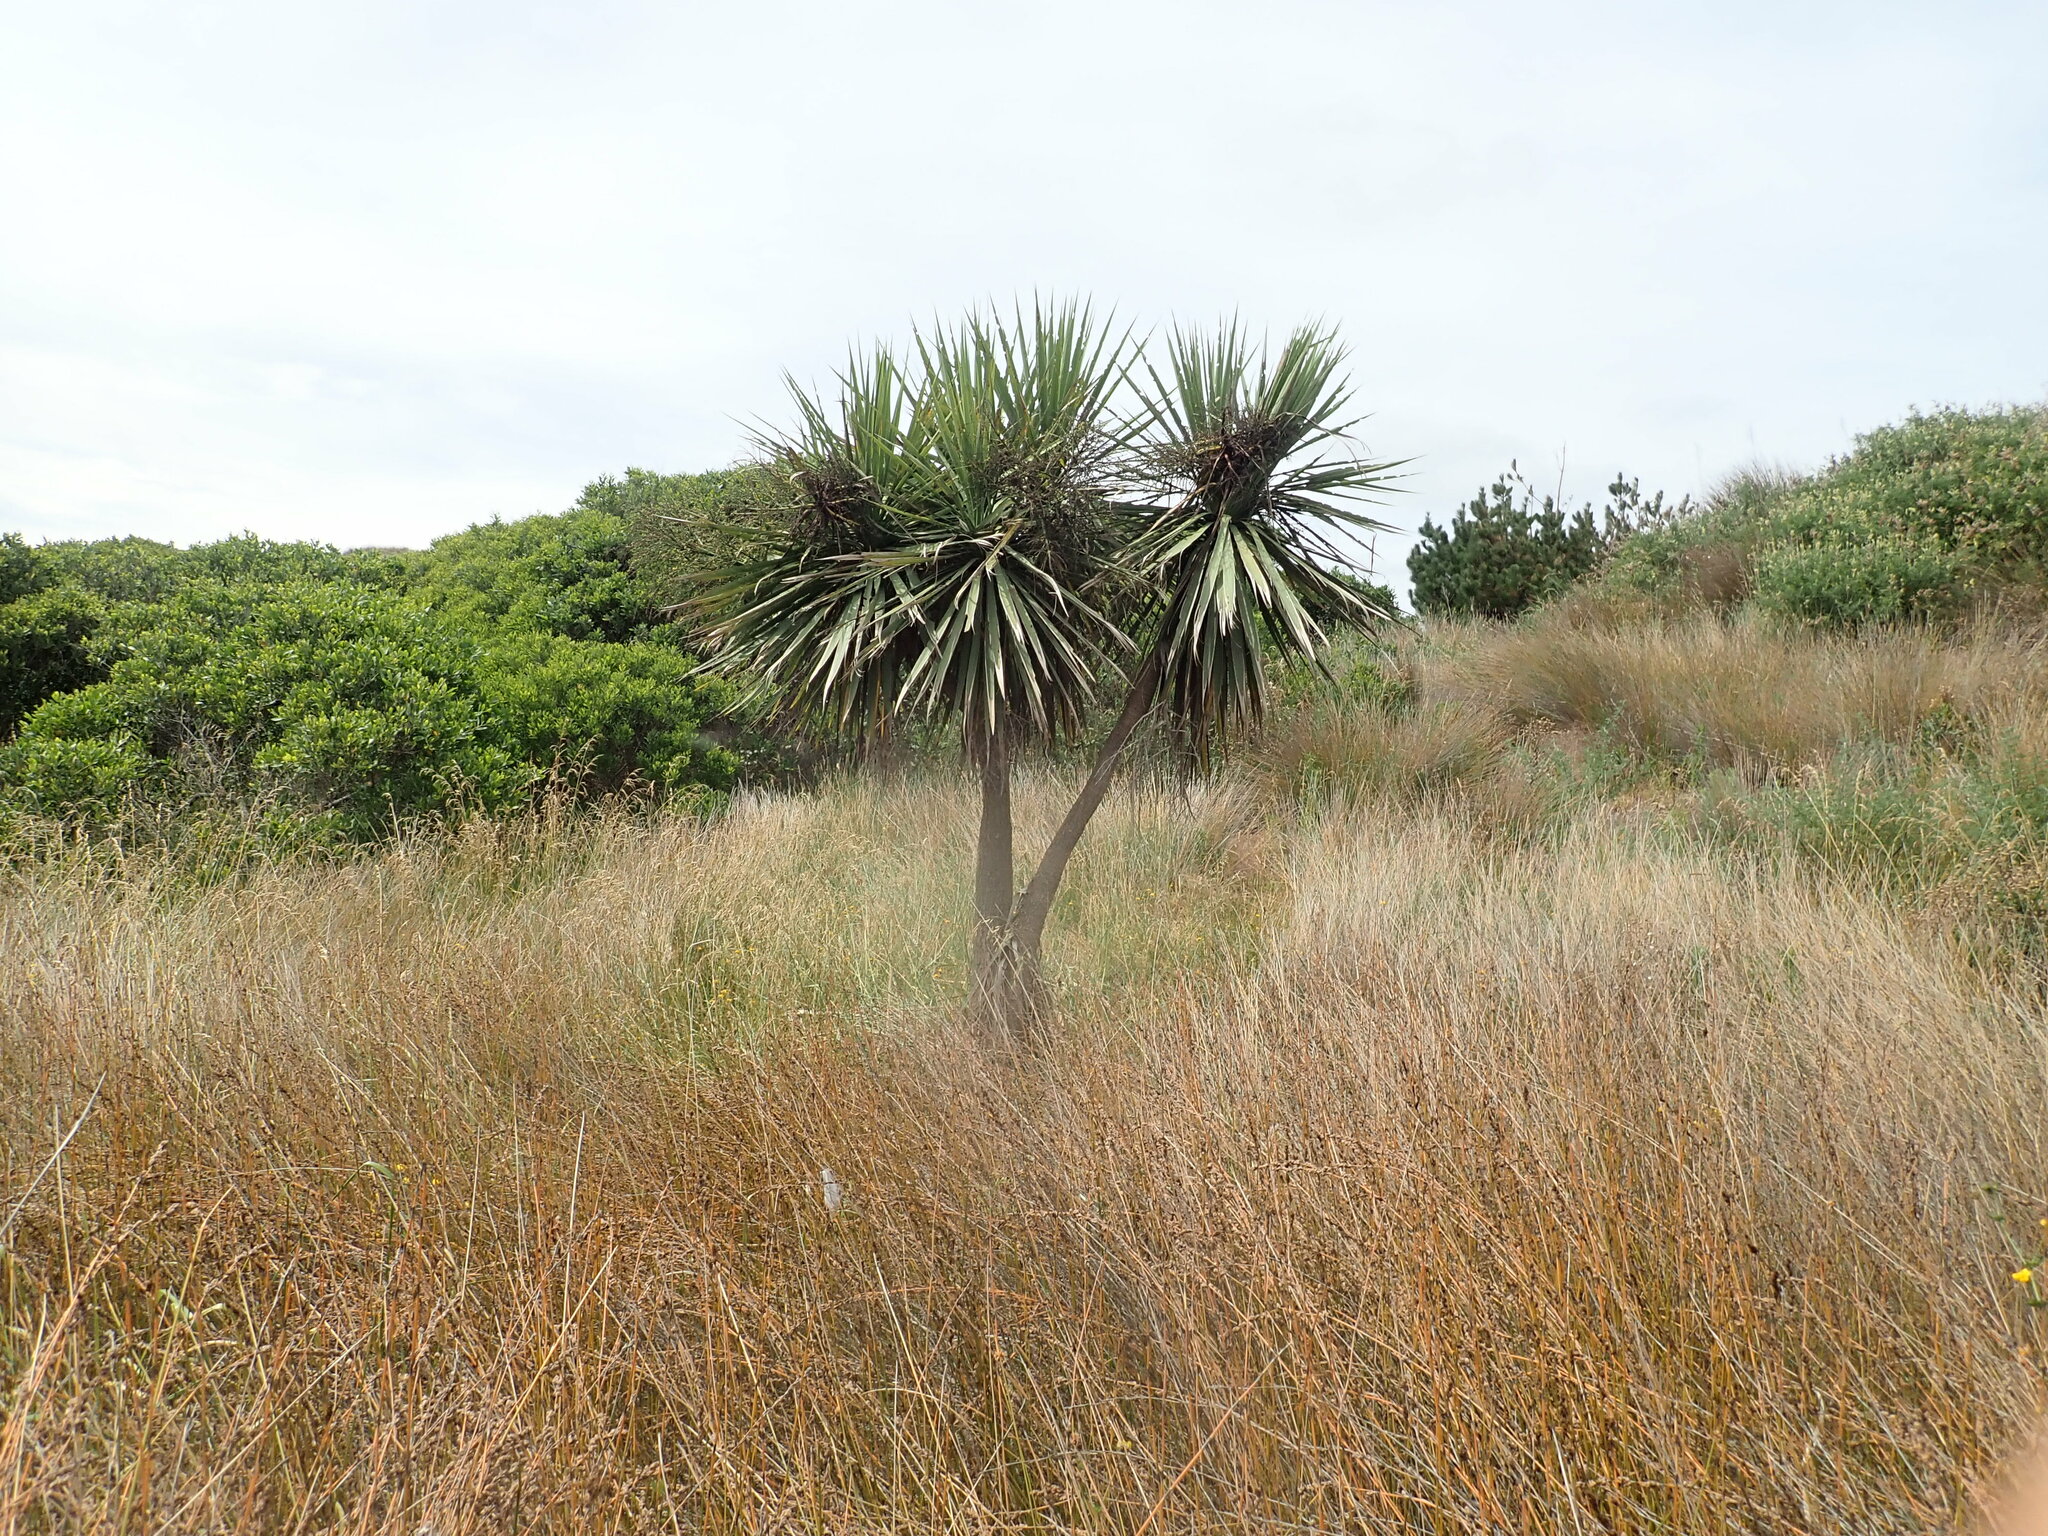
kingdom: Plantae
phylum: Tracheophyta
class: Liliopsida
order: Asparagales
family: Asparagaceae
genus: Cordyline
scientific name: Cordyline australis
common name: Cabbage-palm
